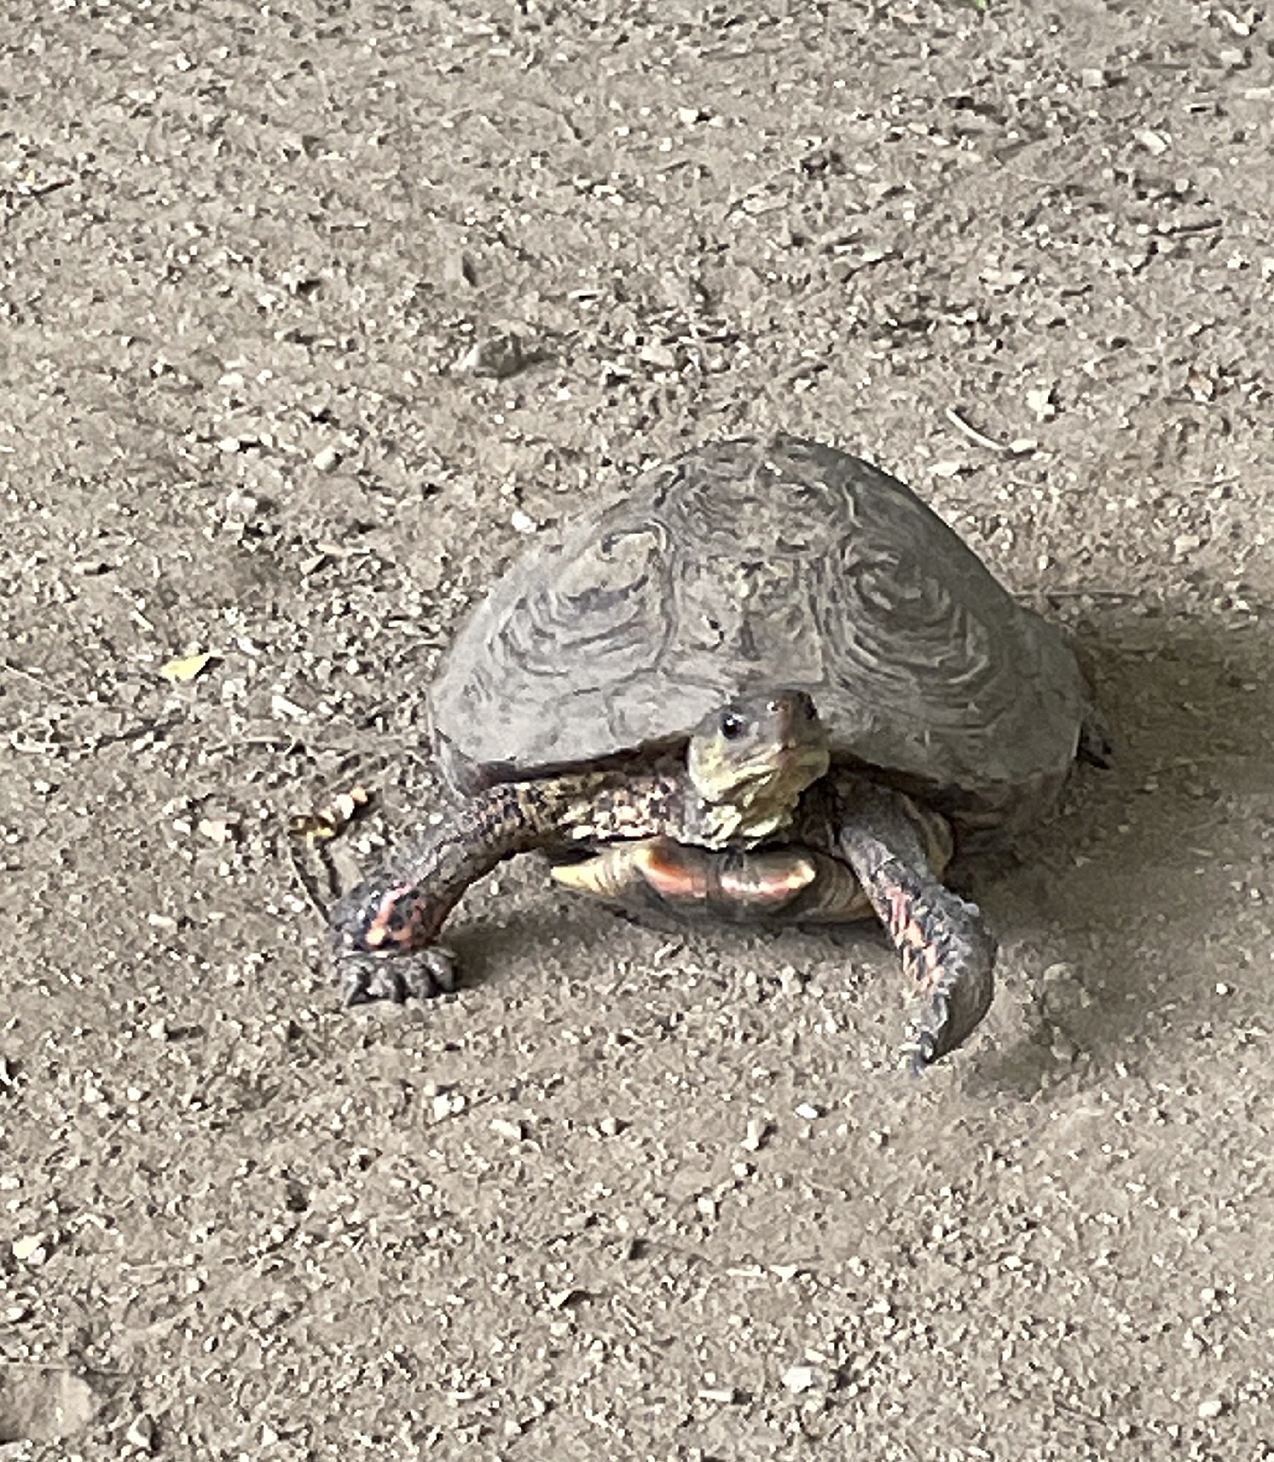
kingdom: Animalia
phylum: Chordata
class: Testudines
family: Geoemydidae
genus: Rhinoclemmys
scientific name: Rhinoclemmys pulcherrima
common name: Painted wood turtle
